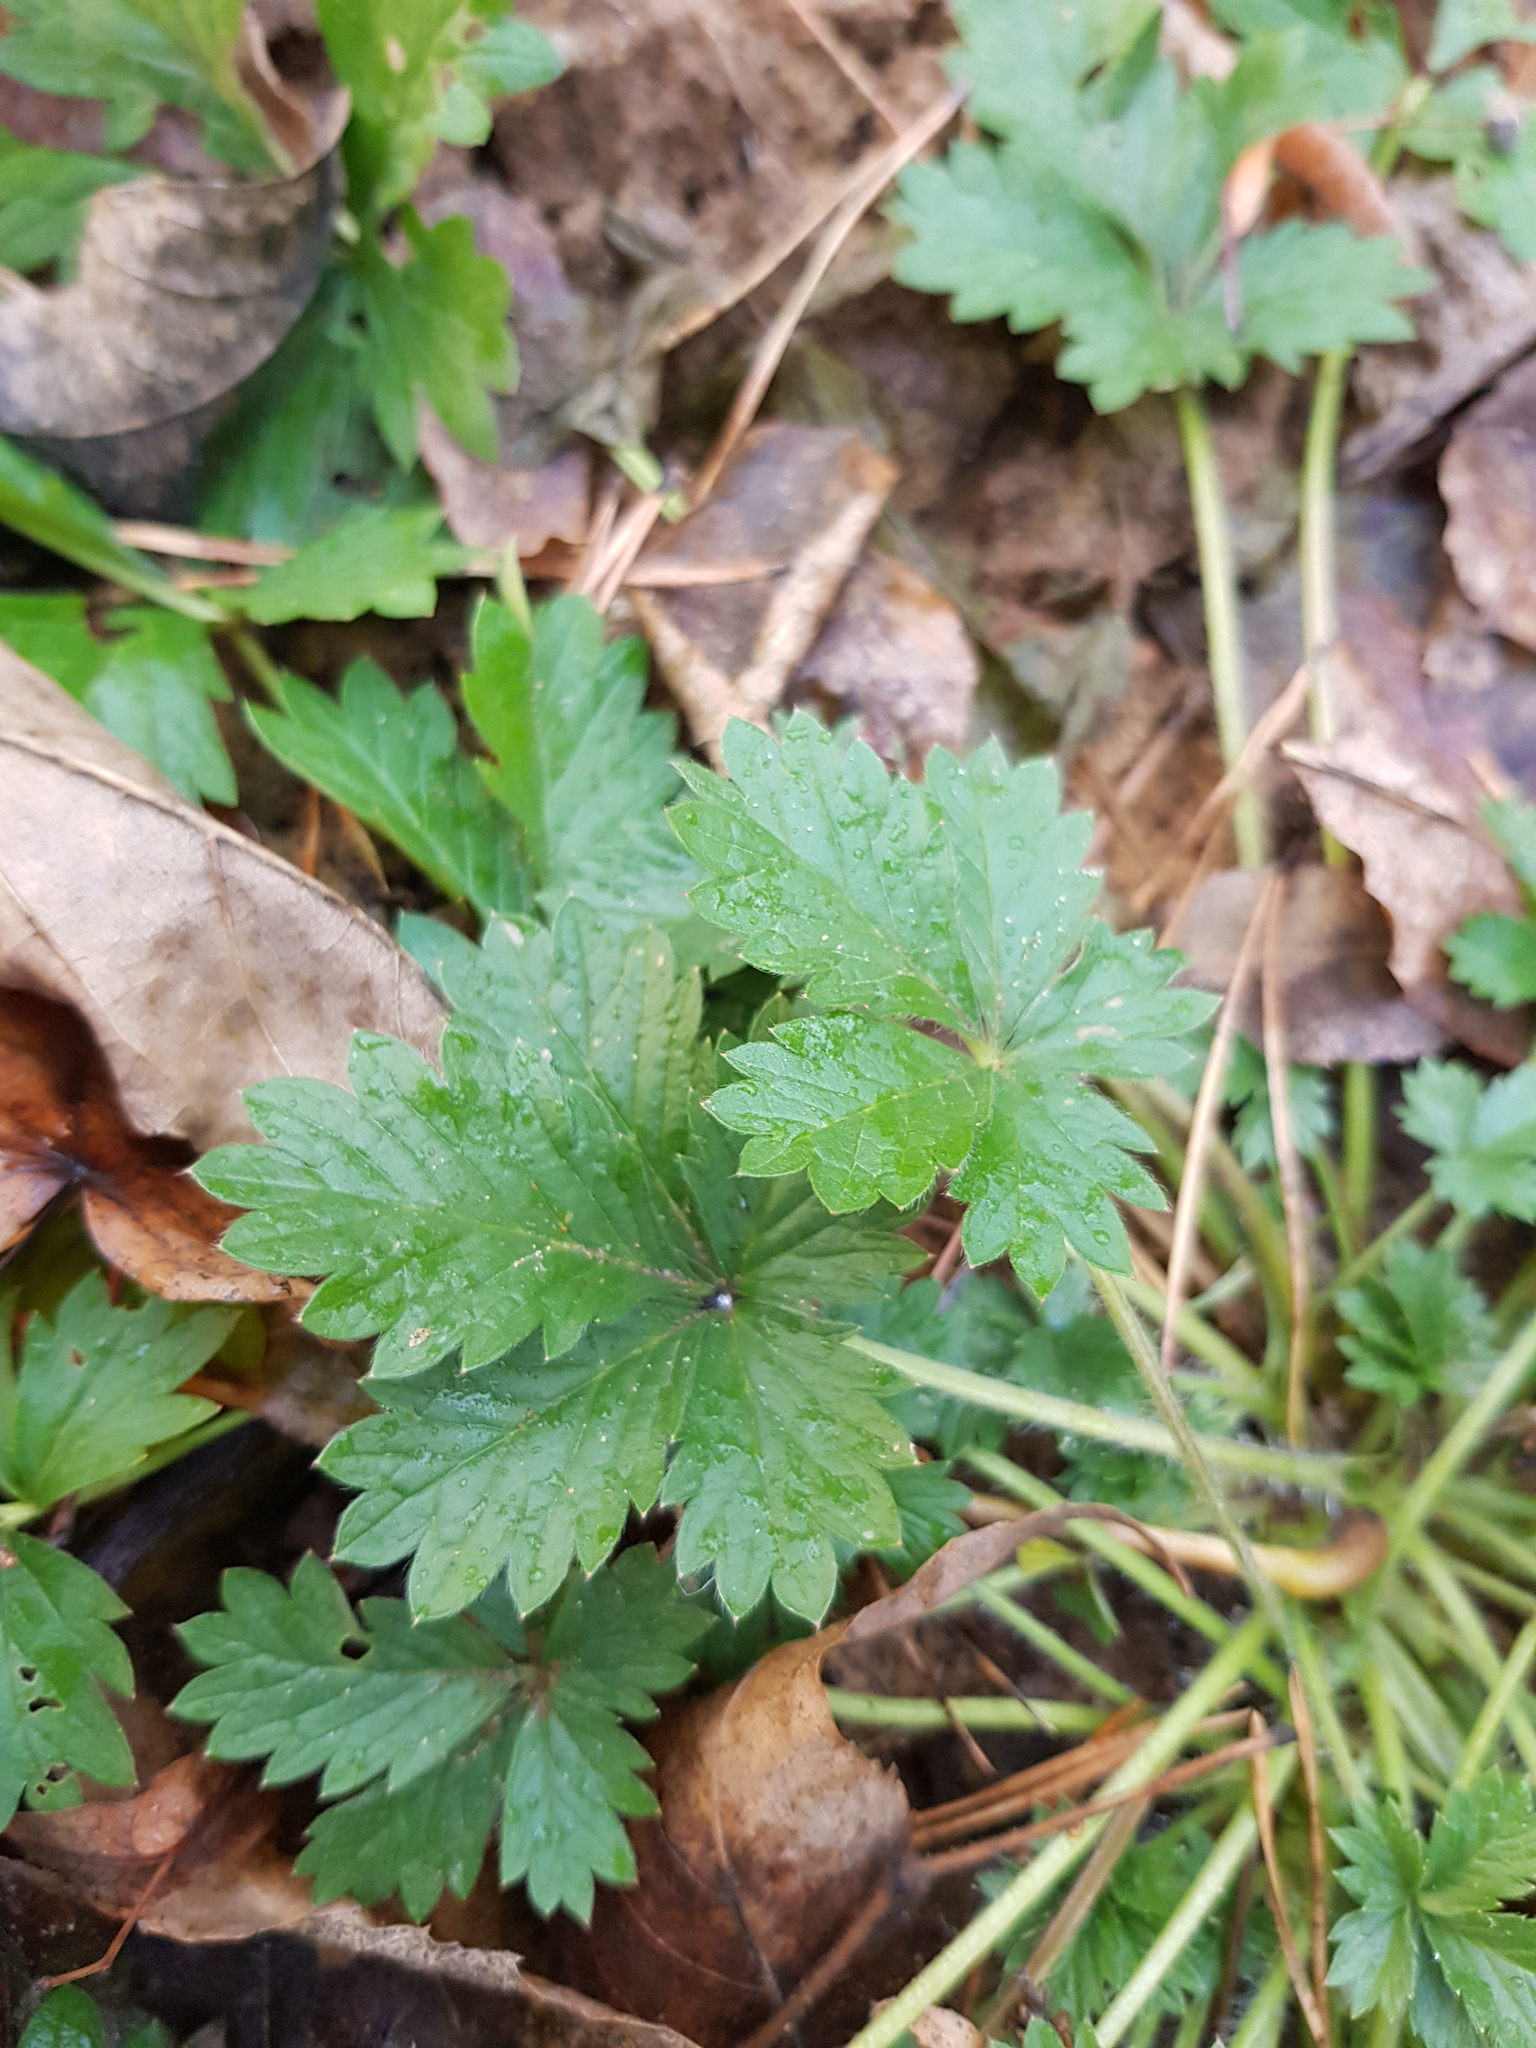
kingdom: Plantae
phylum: Tracheophyta
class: Magnoliopsida
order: Rosales
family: Rosaceae
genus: Potentilla
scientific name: Potentilla intermedia
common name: Downy cinquefoil
